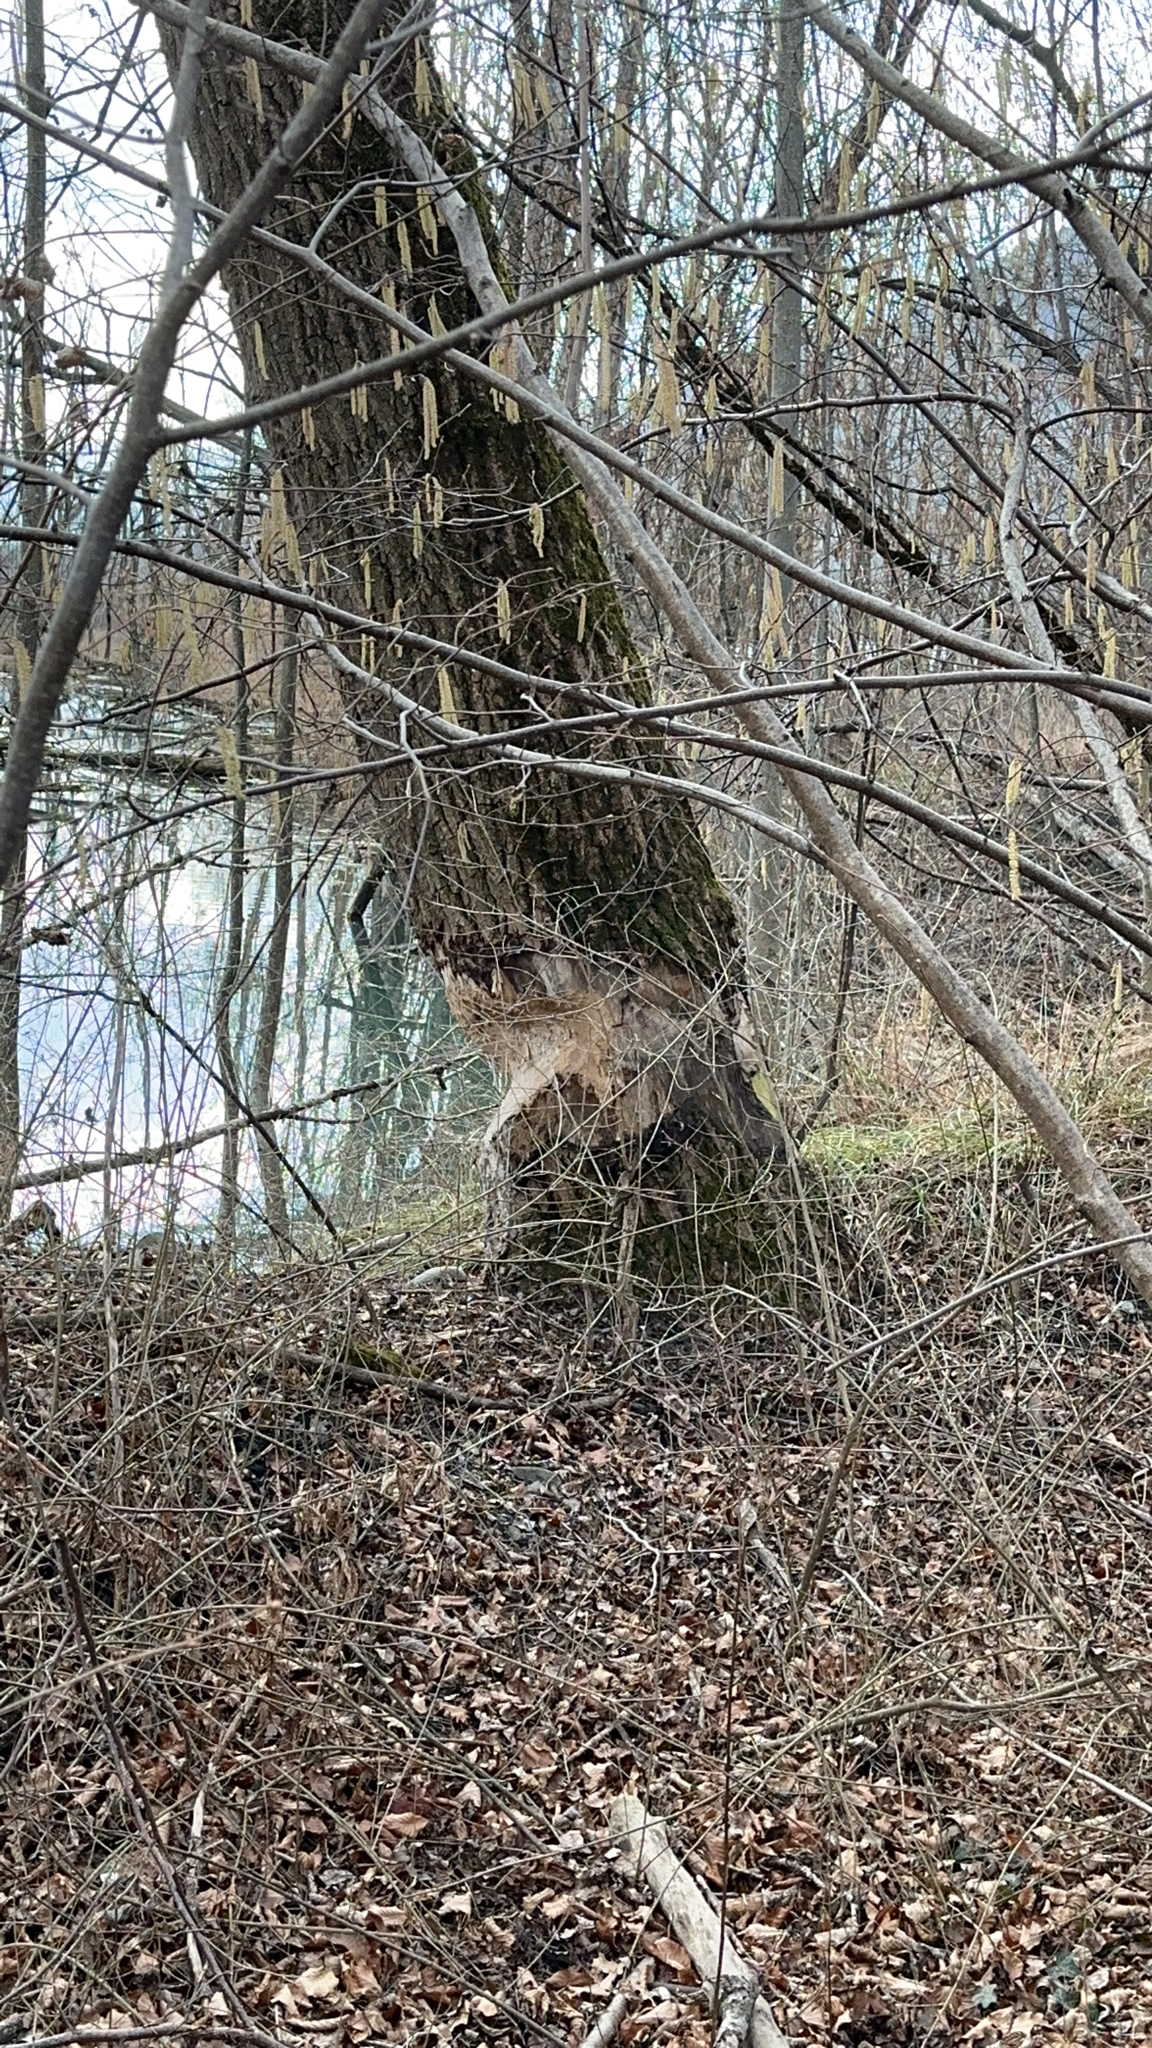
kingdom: Animalia
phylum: Chordata
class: Mammalia
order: Rodentia
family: Castoridae
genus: Castor
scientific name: Castor fiber
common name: Eurasian beaver
